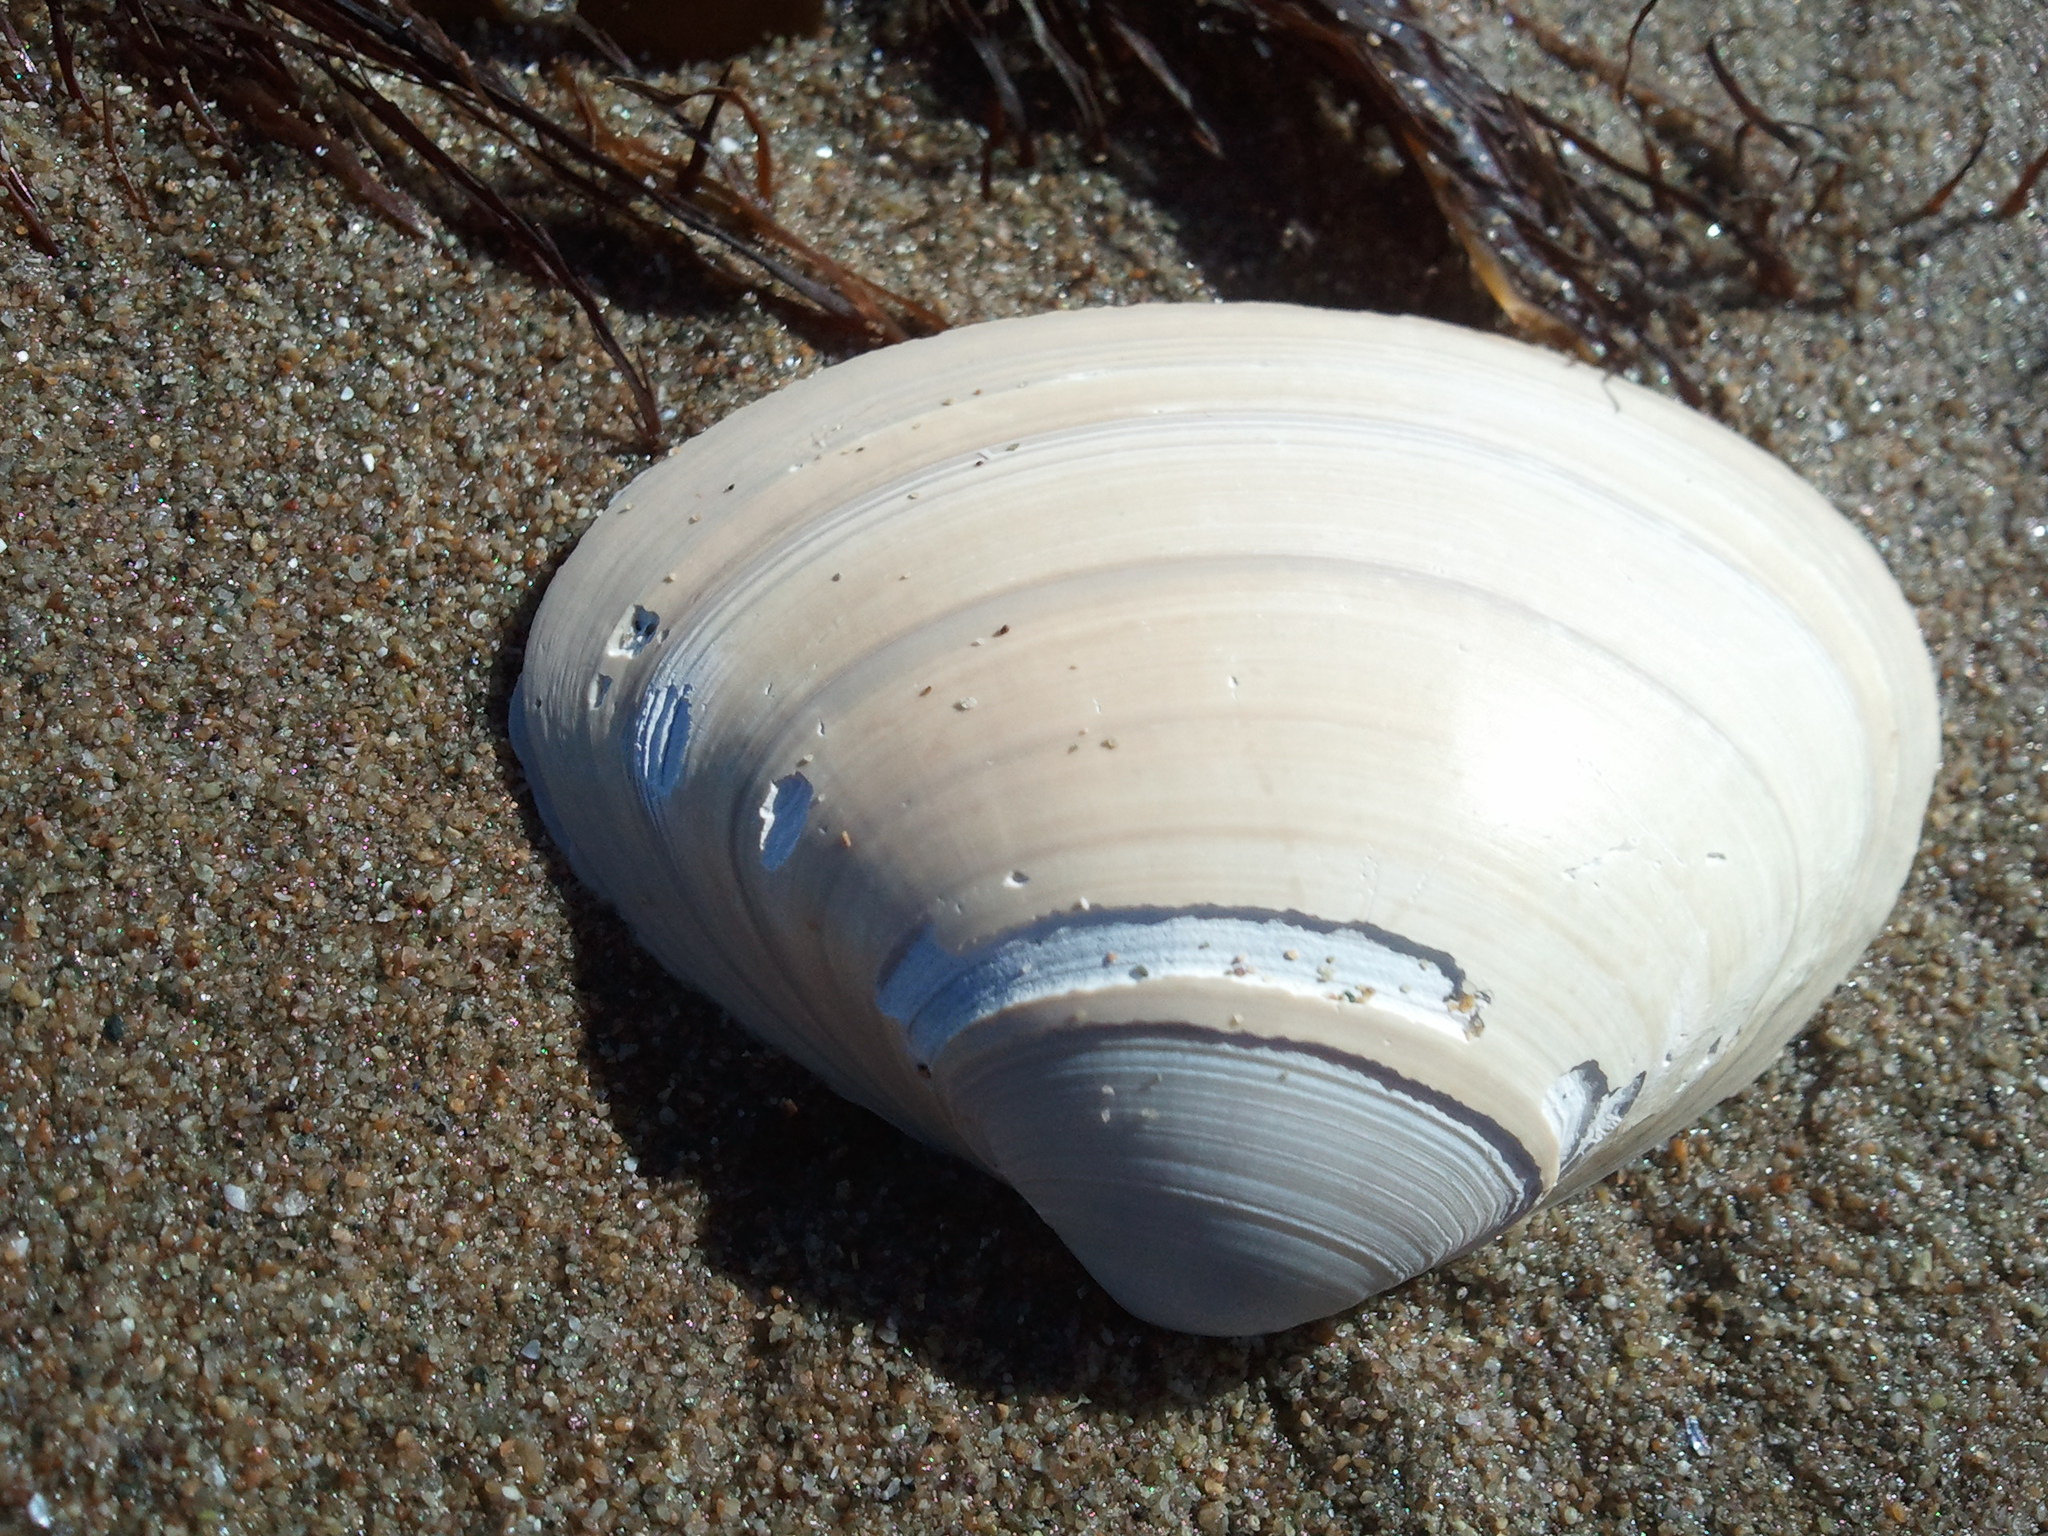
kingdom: Animalia
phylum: Mollusca
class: Bivalvia
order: Venerida
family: Mactridae
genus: Spisula
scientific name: Spisula solidissima
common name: Atlantic surf clam
